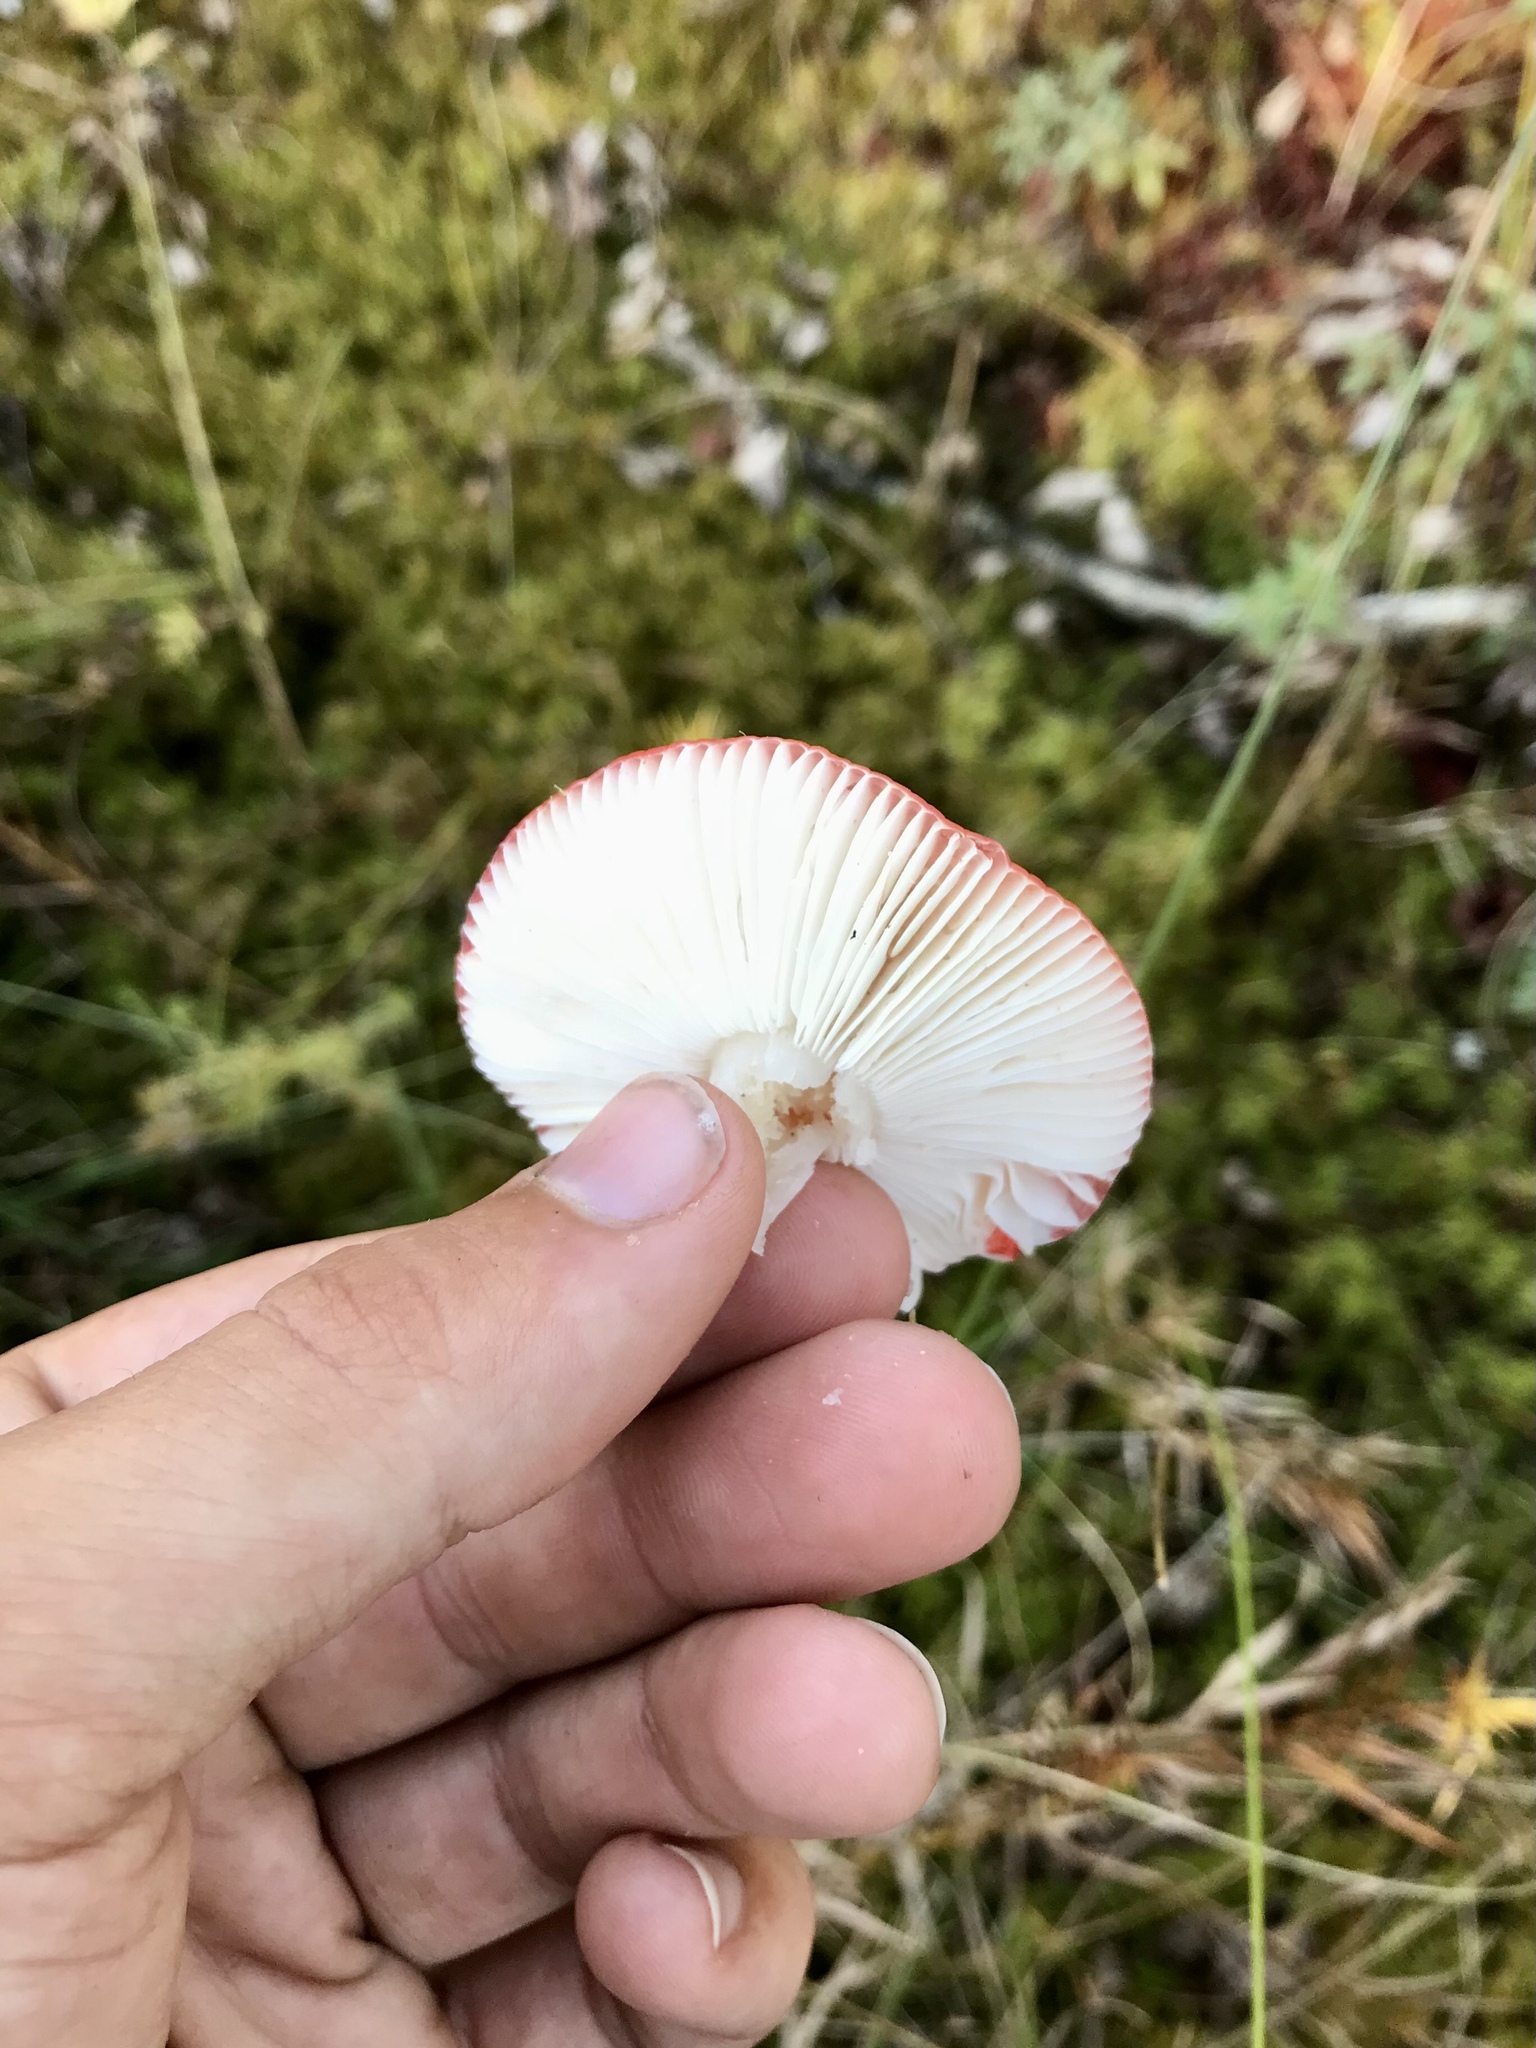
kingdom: Fungi
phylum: Basidiomycota
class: Agaricomycetes
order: Russulales
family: Russulaceae
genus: Russula
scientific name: Russula
